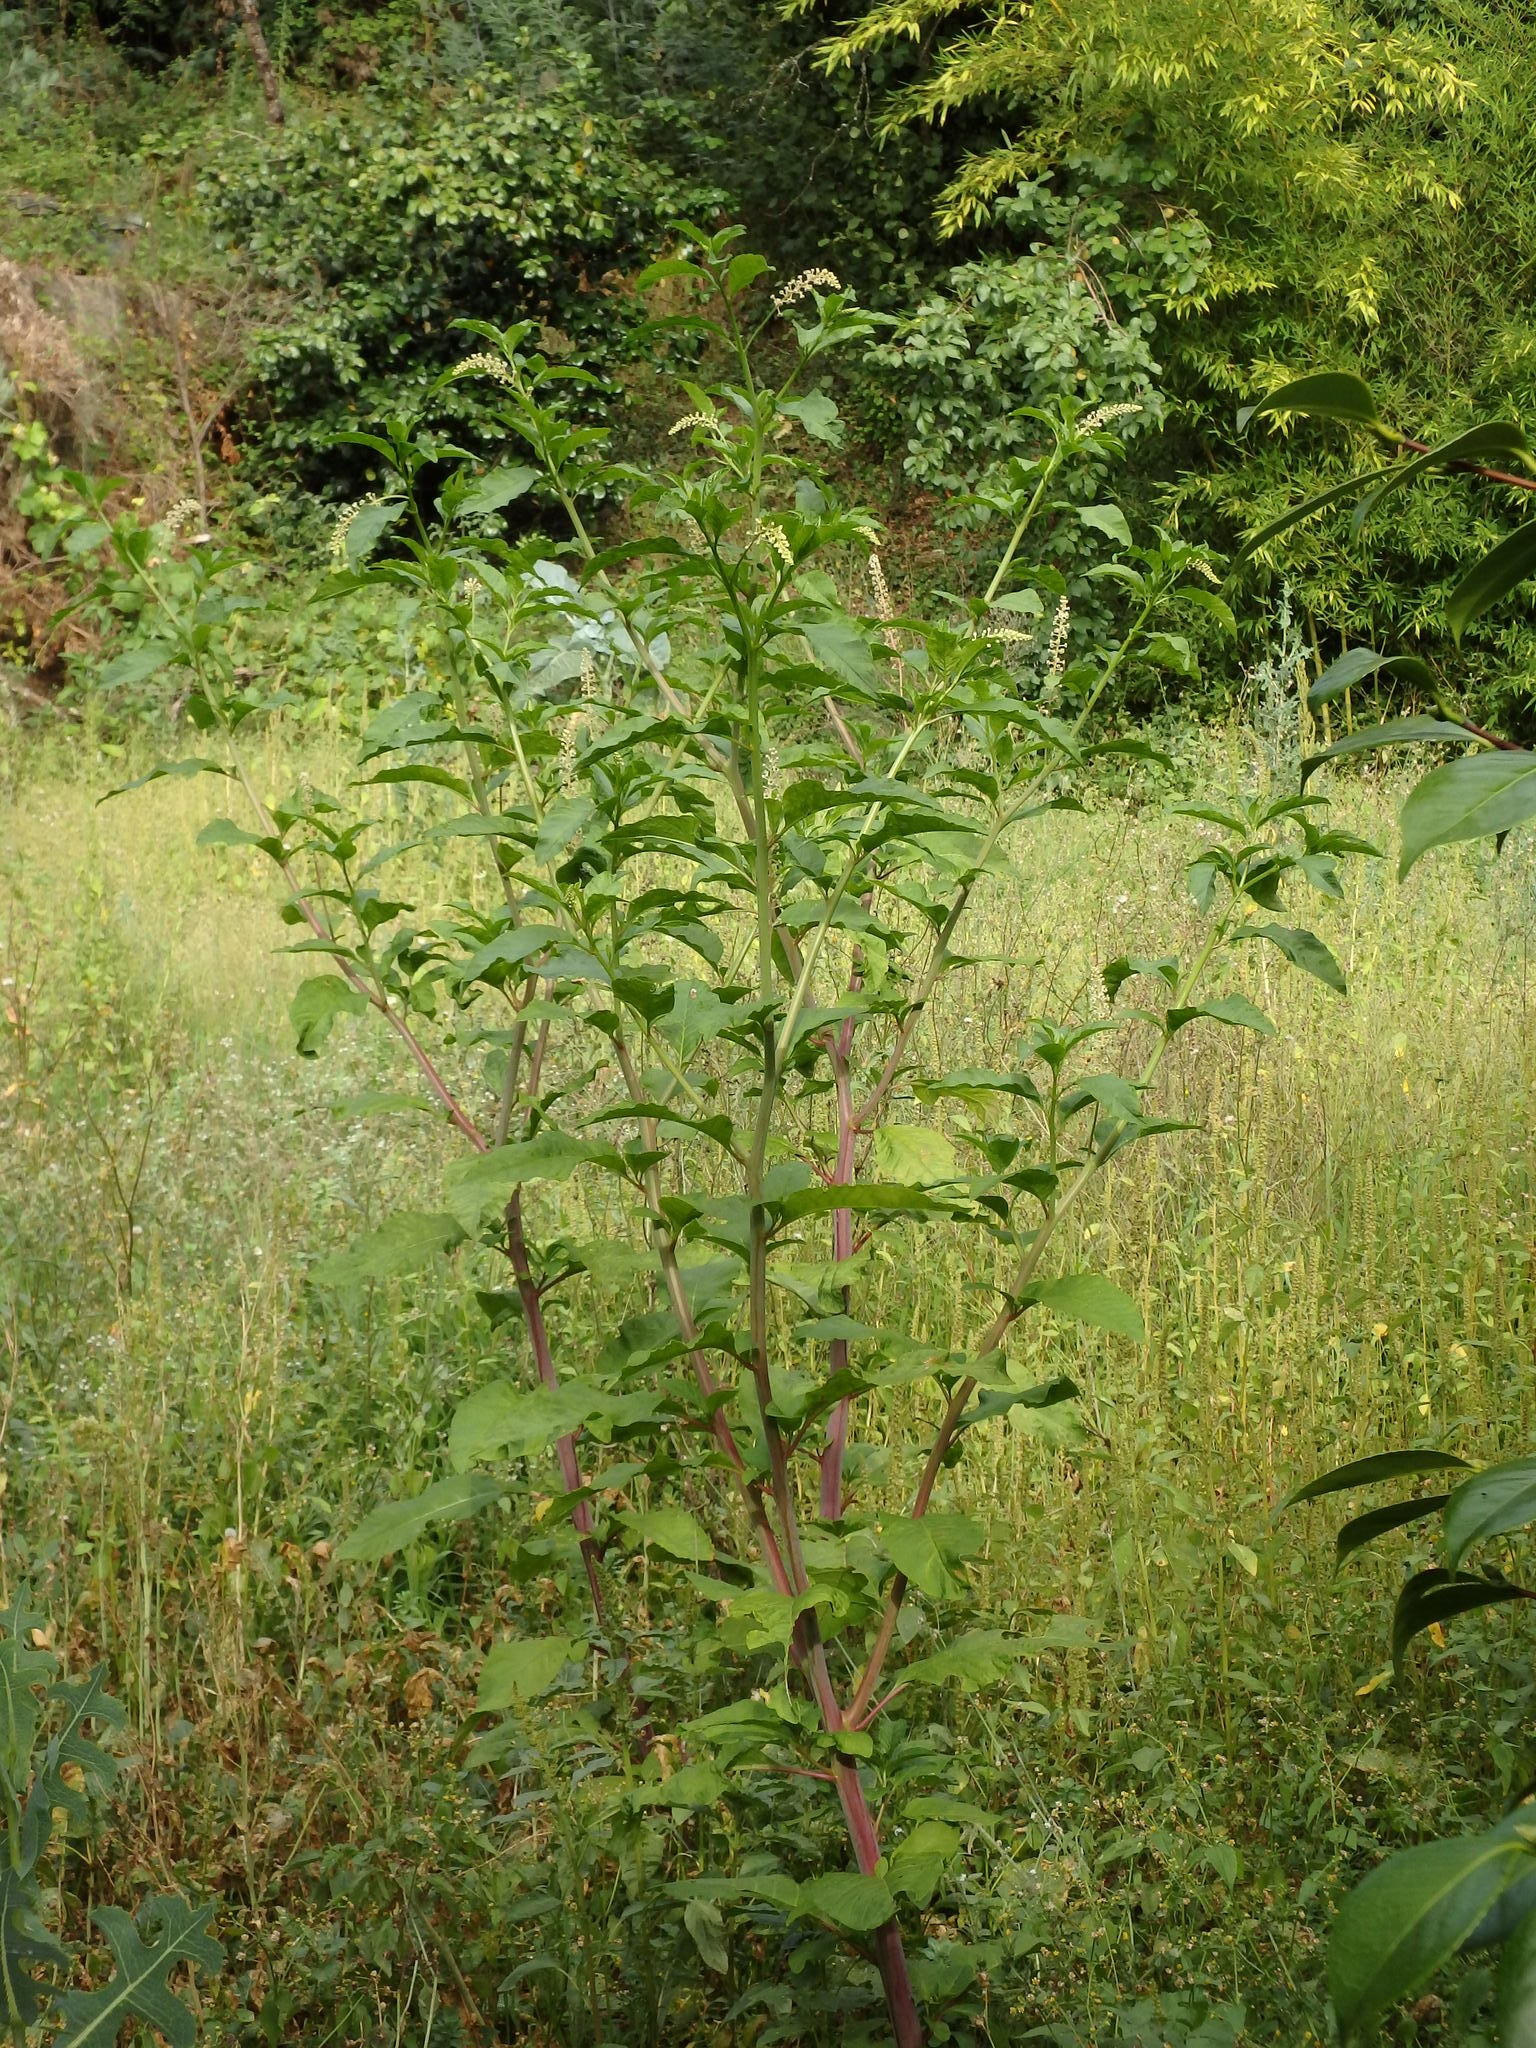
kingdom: Plantae
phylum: Tracheophyta
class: Magnoliopsida
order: Caryophyllales
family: Phytolaccaceae
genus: Phytolacca
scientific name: Phytolacca americana
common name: American pokeweed
